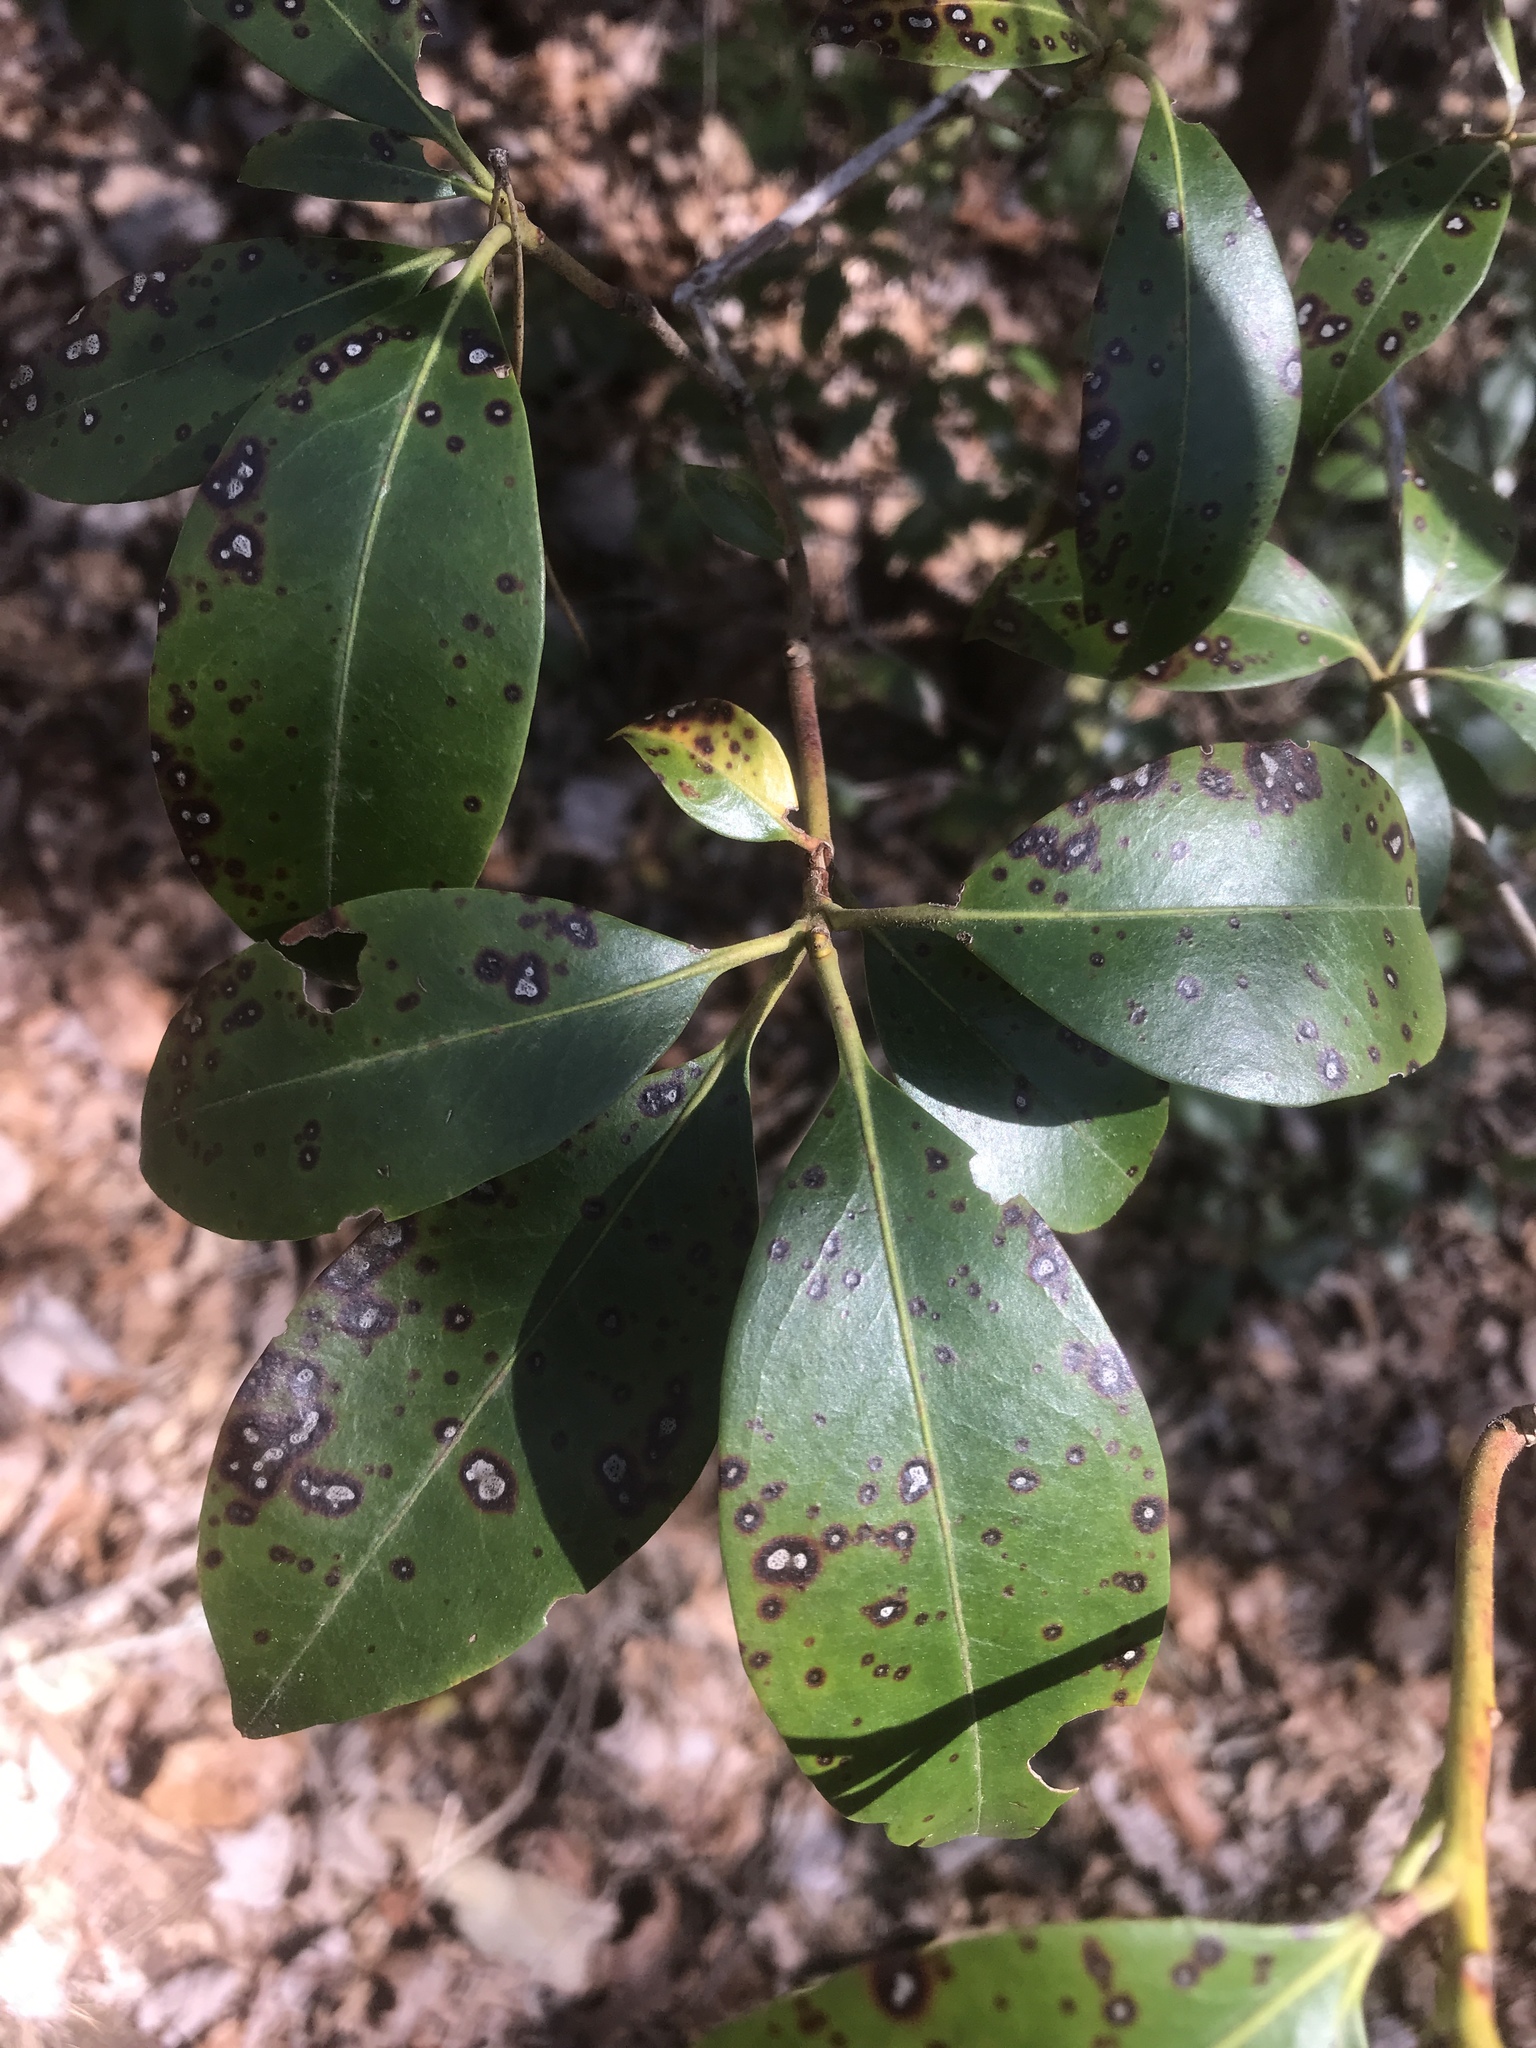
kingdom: Plantae
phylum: Tracheophyta
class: Magnoliopsida
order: Ericales
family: Ericaceae
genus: Kalmia
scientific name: Kalmia latifolia
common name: Mountain-laurel
